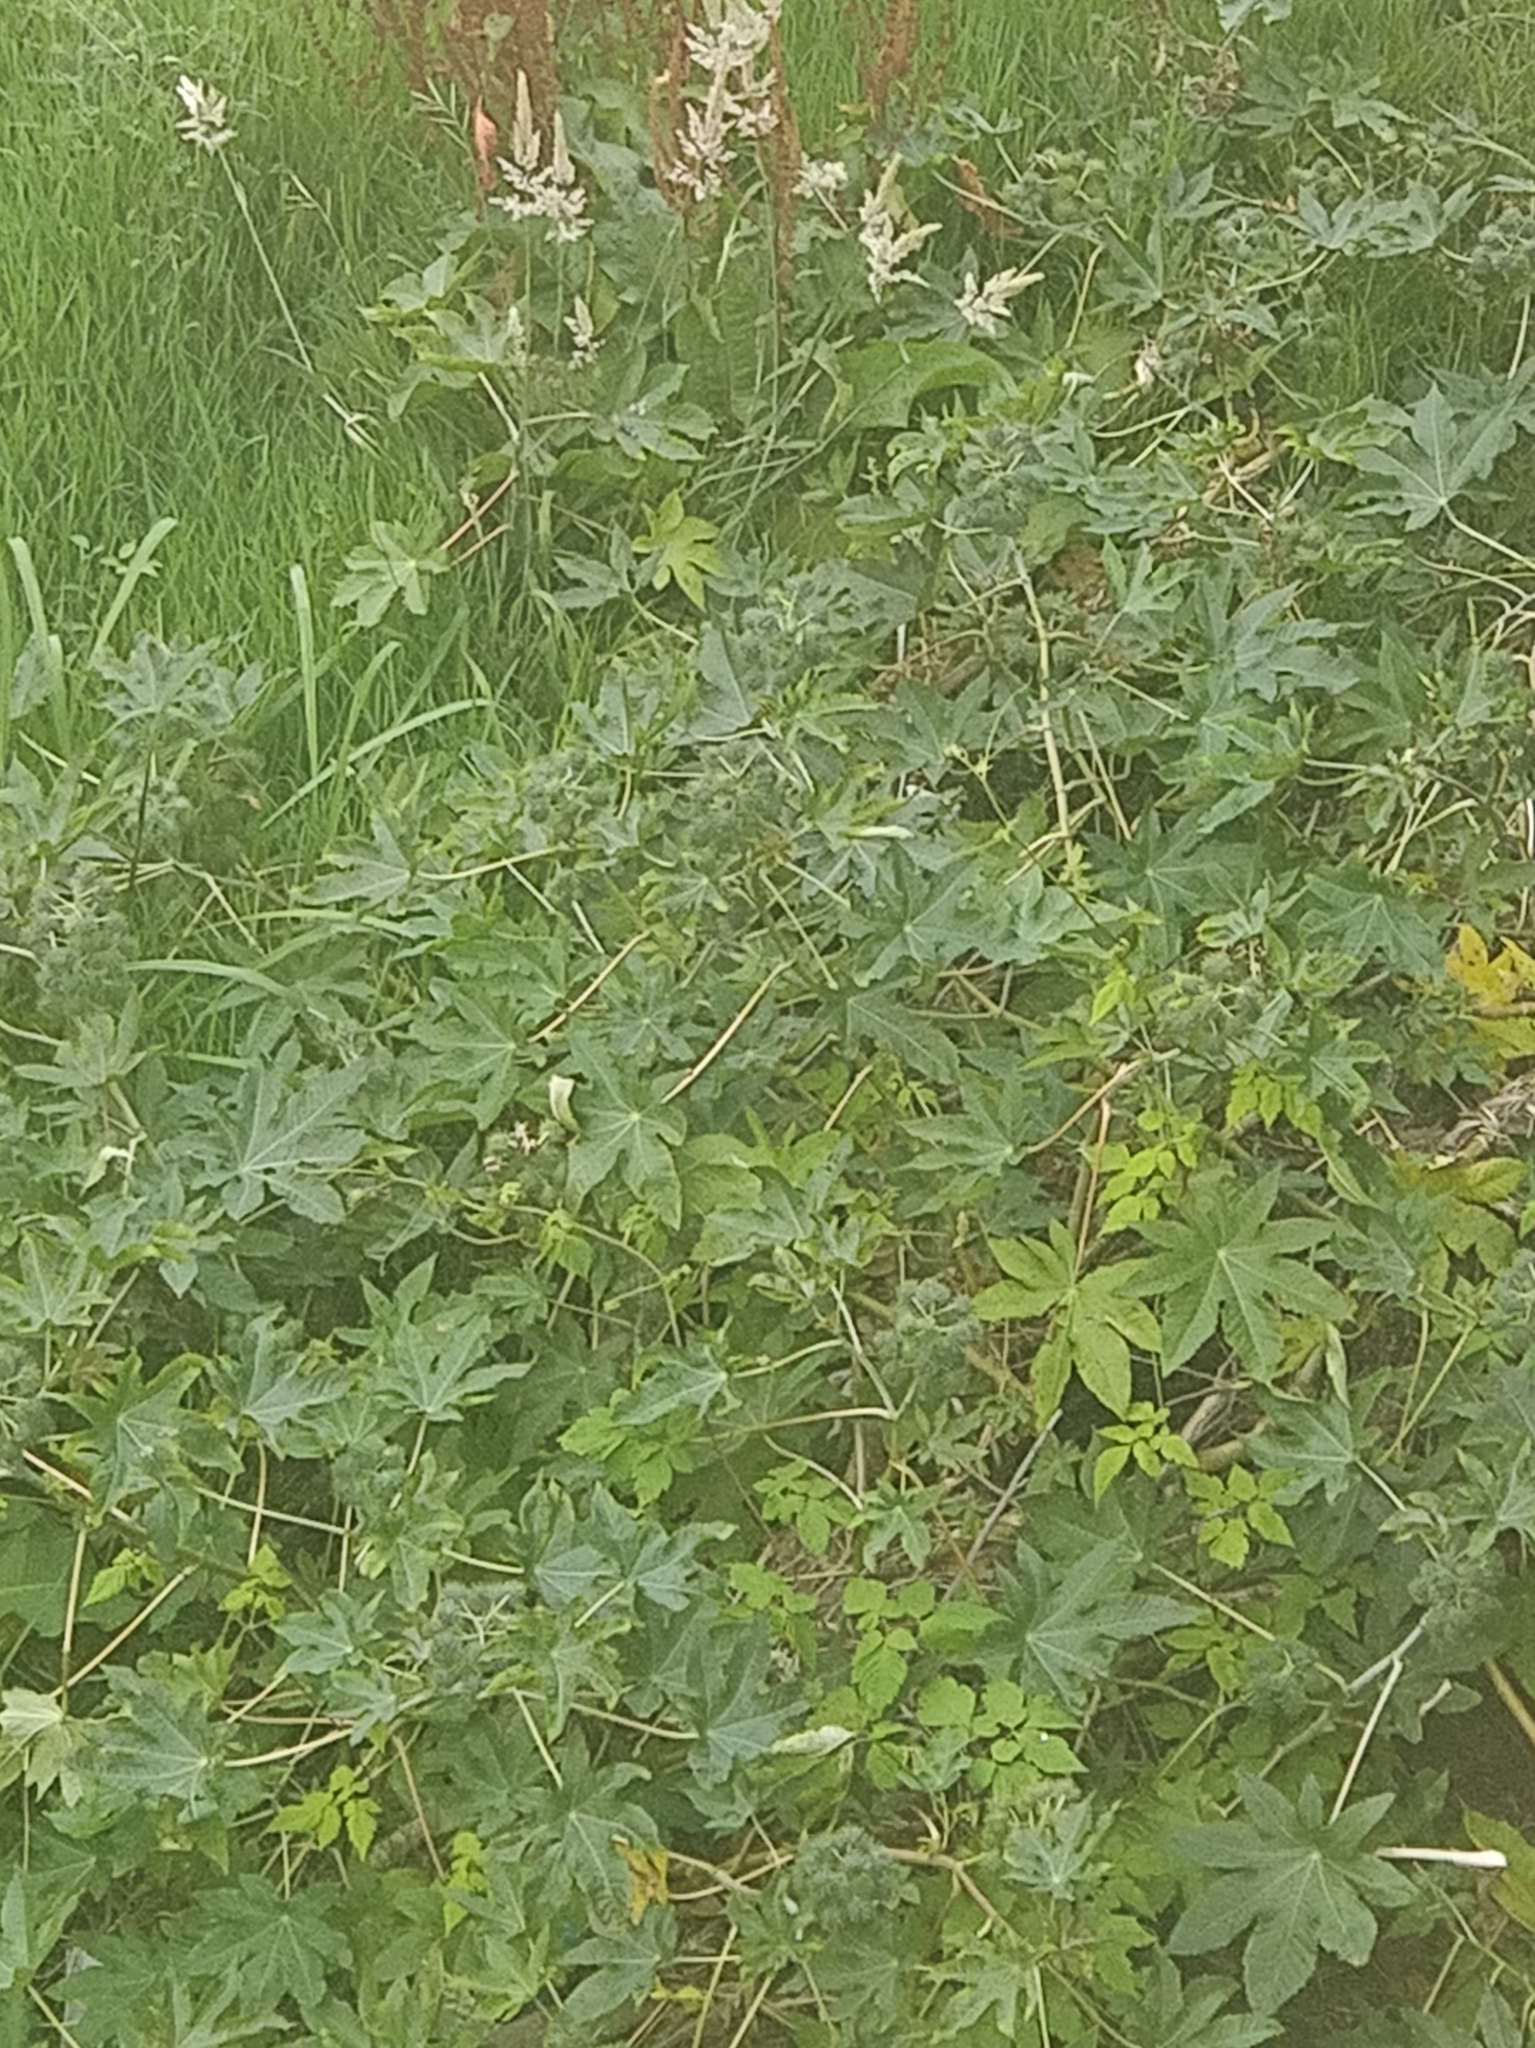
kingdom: Plantae
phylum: Tracheophyta
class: Magnoliopsida
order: Malpighiales
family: Euphorbiaceae
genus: Ricinus
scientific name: Ricinus communis
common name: Castor-oil-plant
